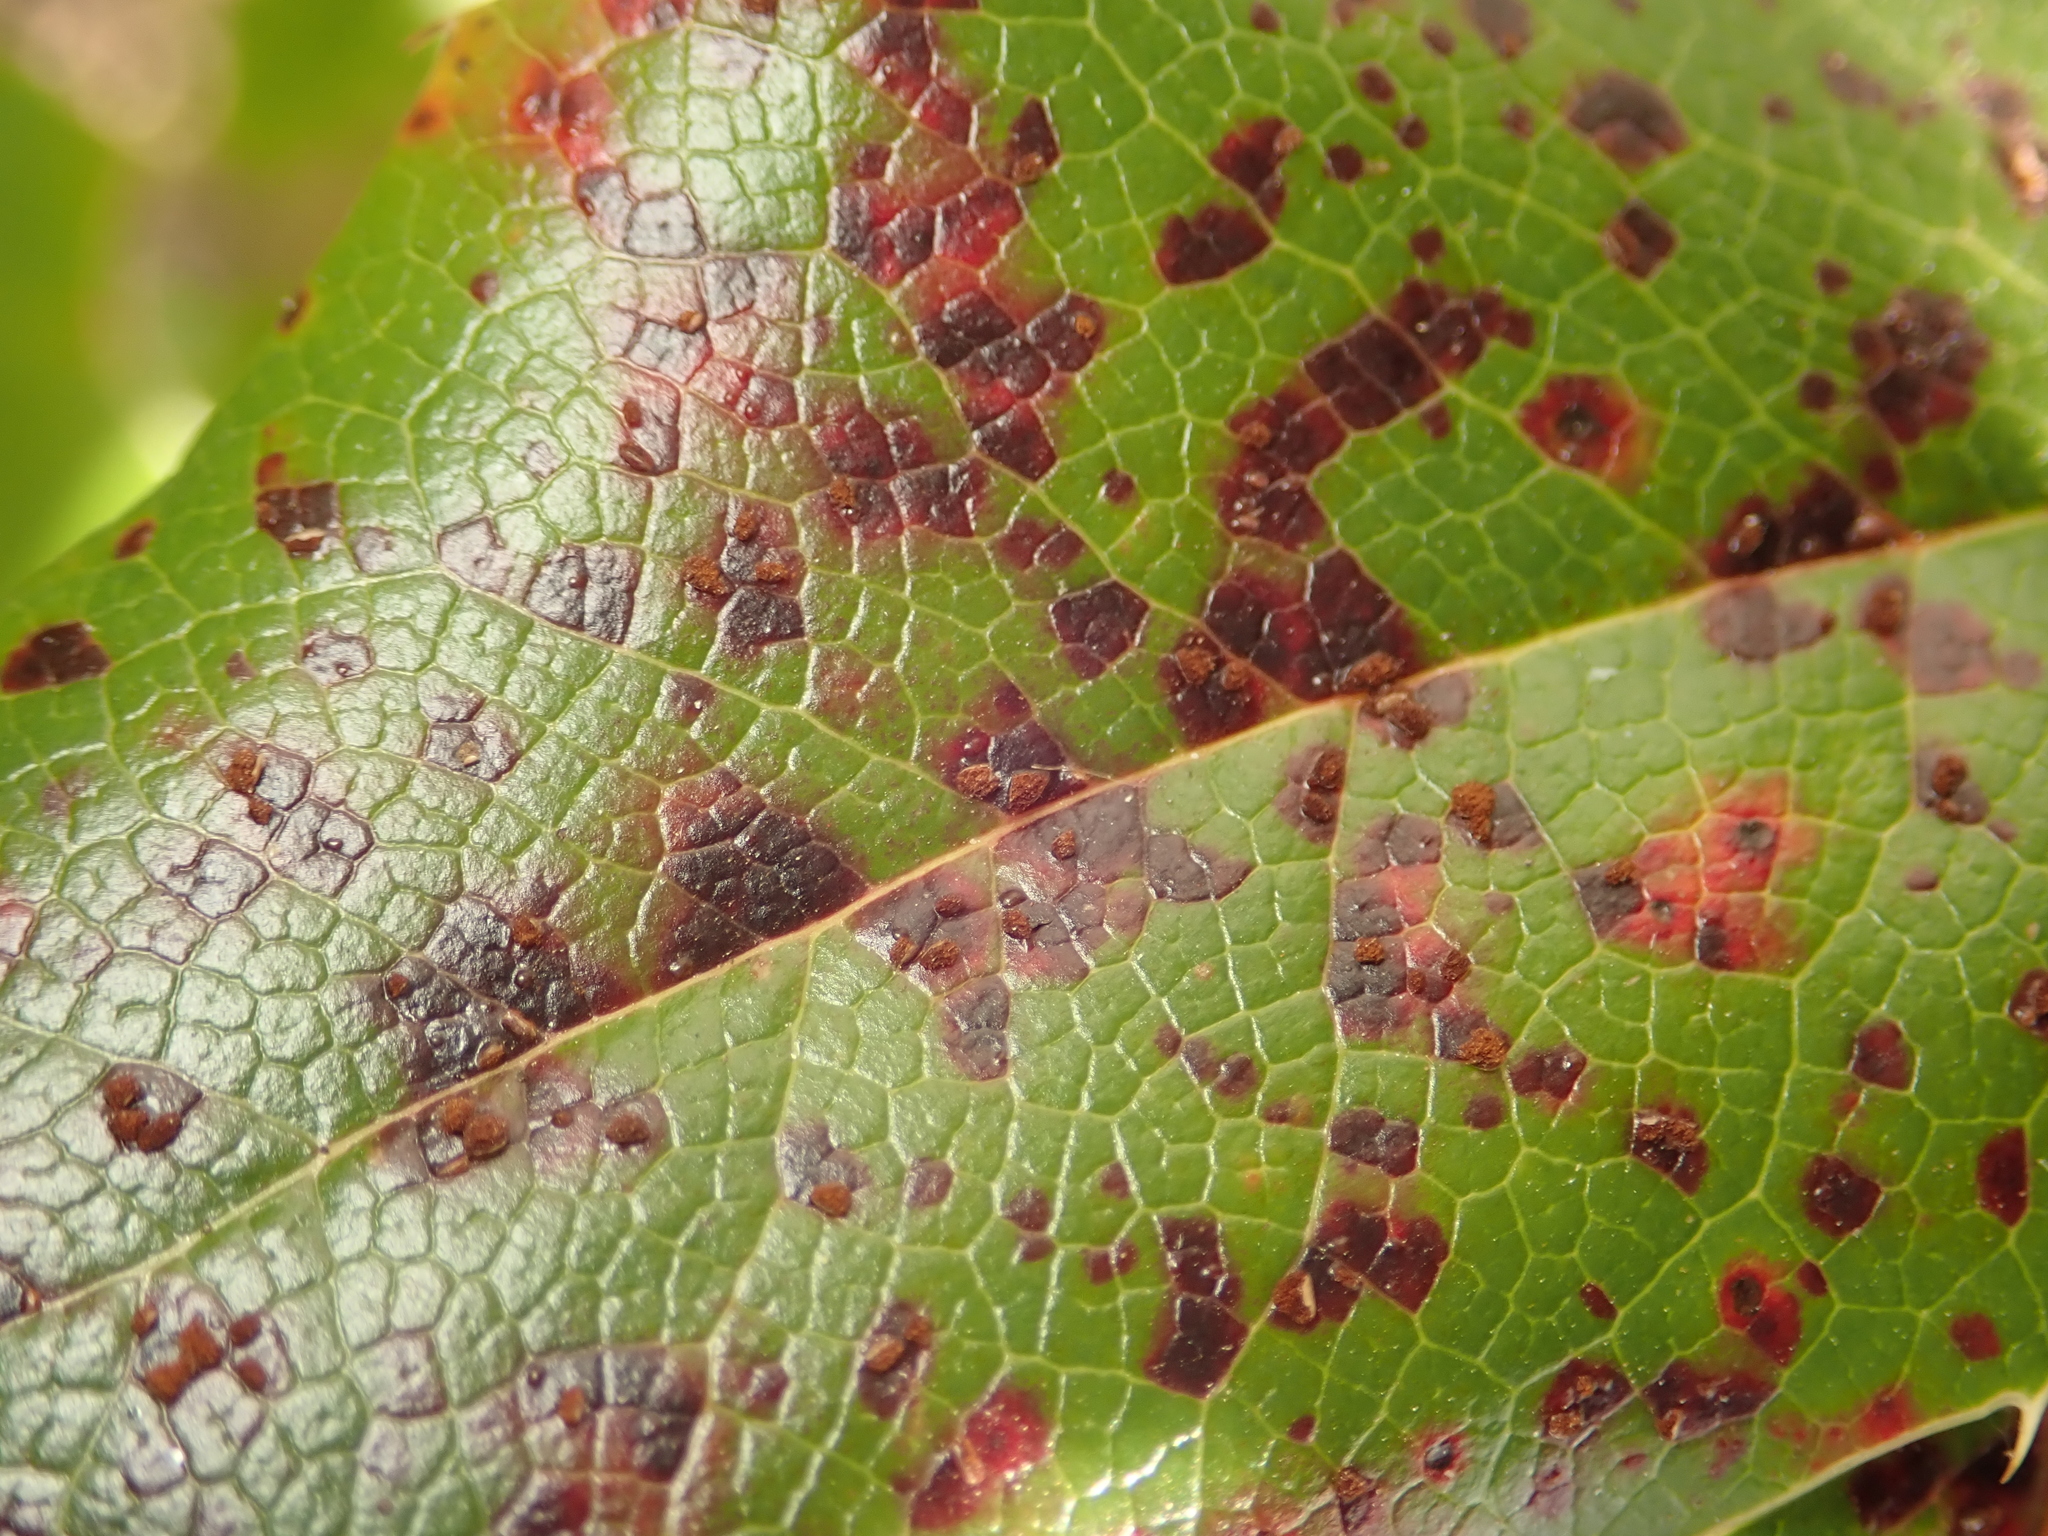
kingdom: Fungi
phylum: Basidiomycota
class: Pucciniomycetes
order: Pucciniales
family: Pucciniaceae
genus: Cumminsiella
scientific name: Cumminsiella mirabilissima
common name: Mahonia rust
